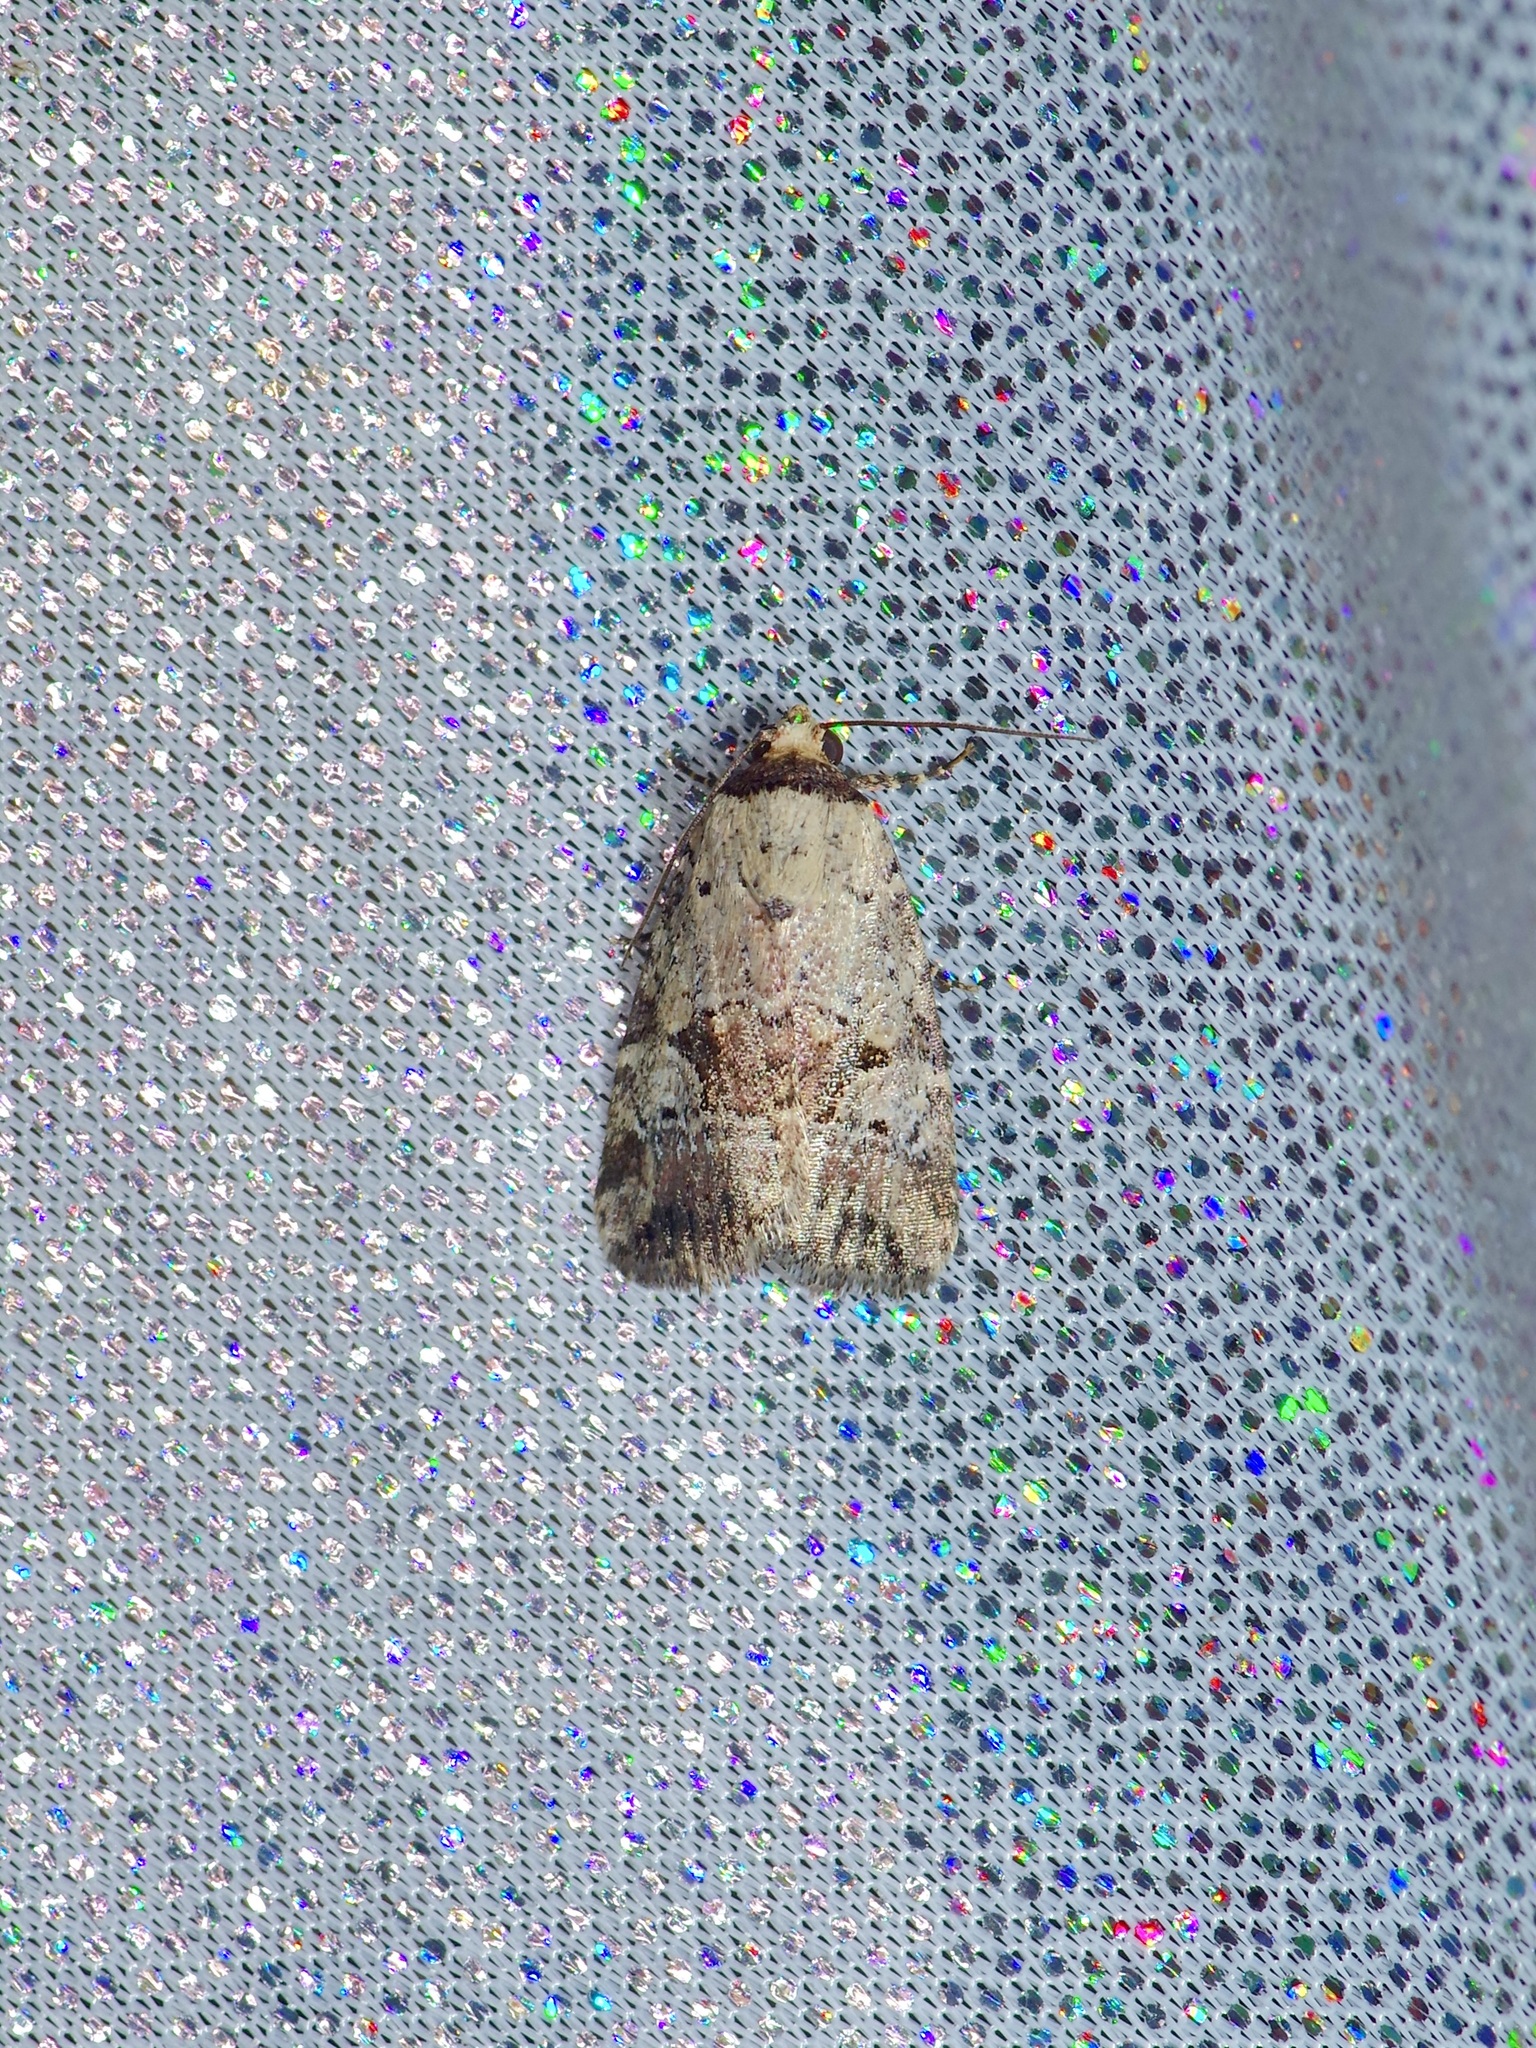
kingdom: Animalia
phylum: Arthropoda
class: Insecta
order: Lepidoptera
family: Noctuidae
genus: Elaphria
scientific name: Elaphria festivoides
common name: Festive midget
